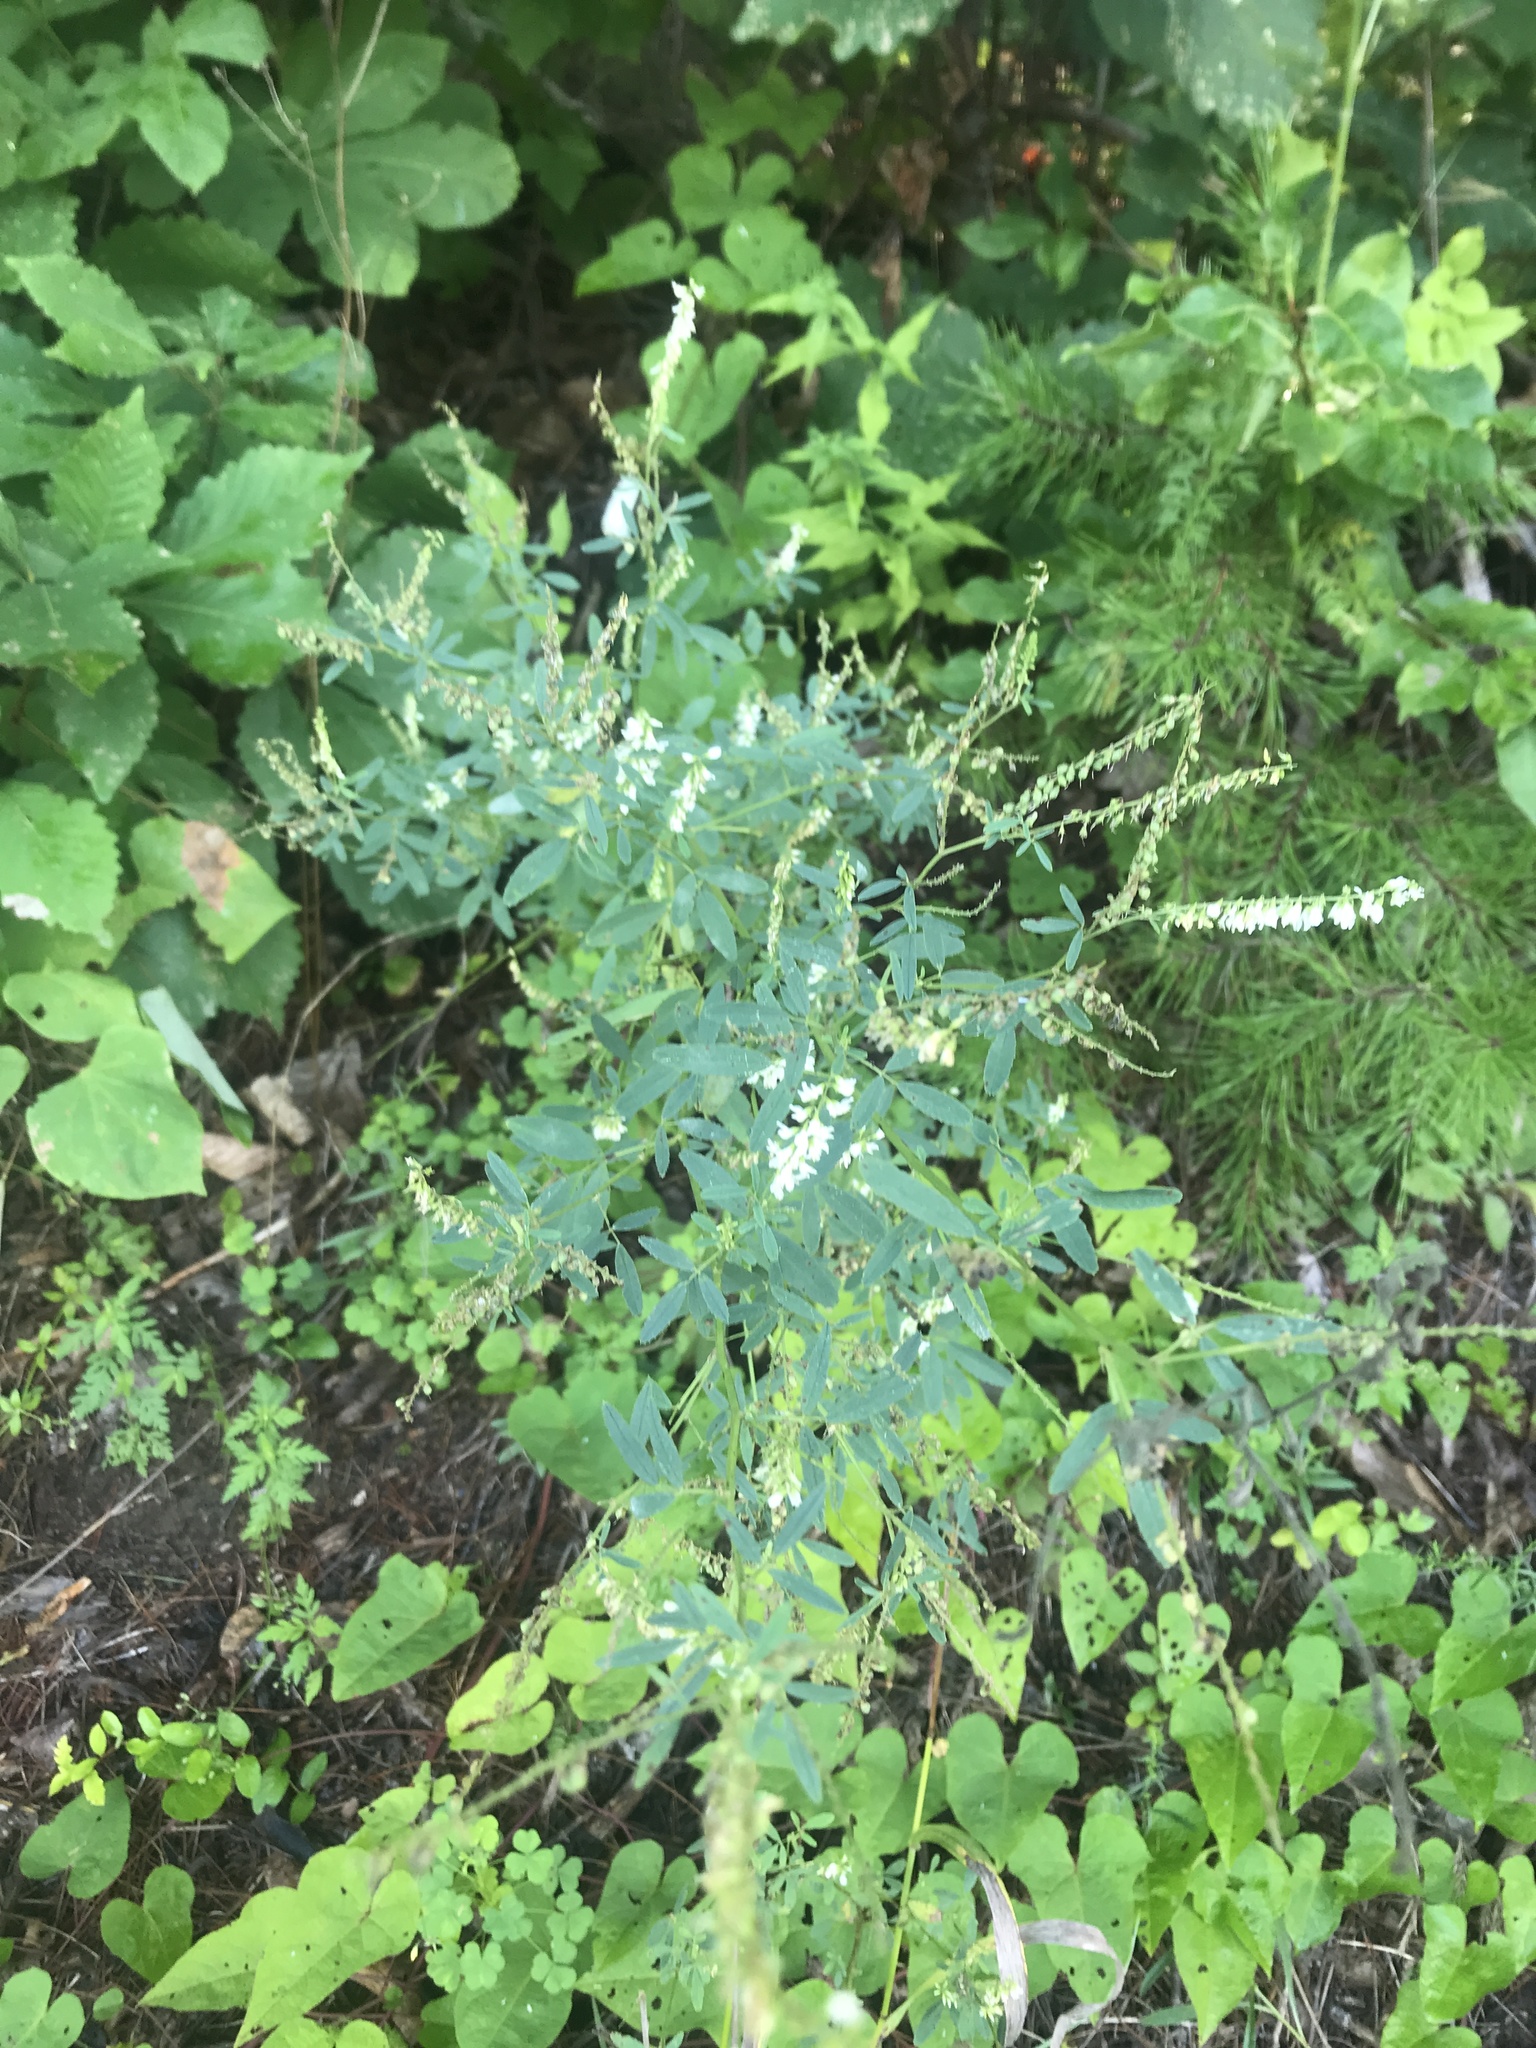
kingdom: Plantae
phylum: Tracheophyta
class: Magnoliopsida
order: Fabales
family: Fabaceae
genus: Melilotus
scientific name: Melilotus albus
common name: White melilot
